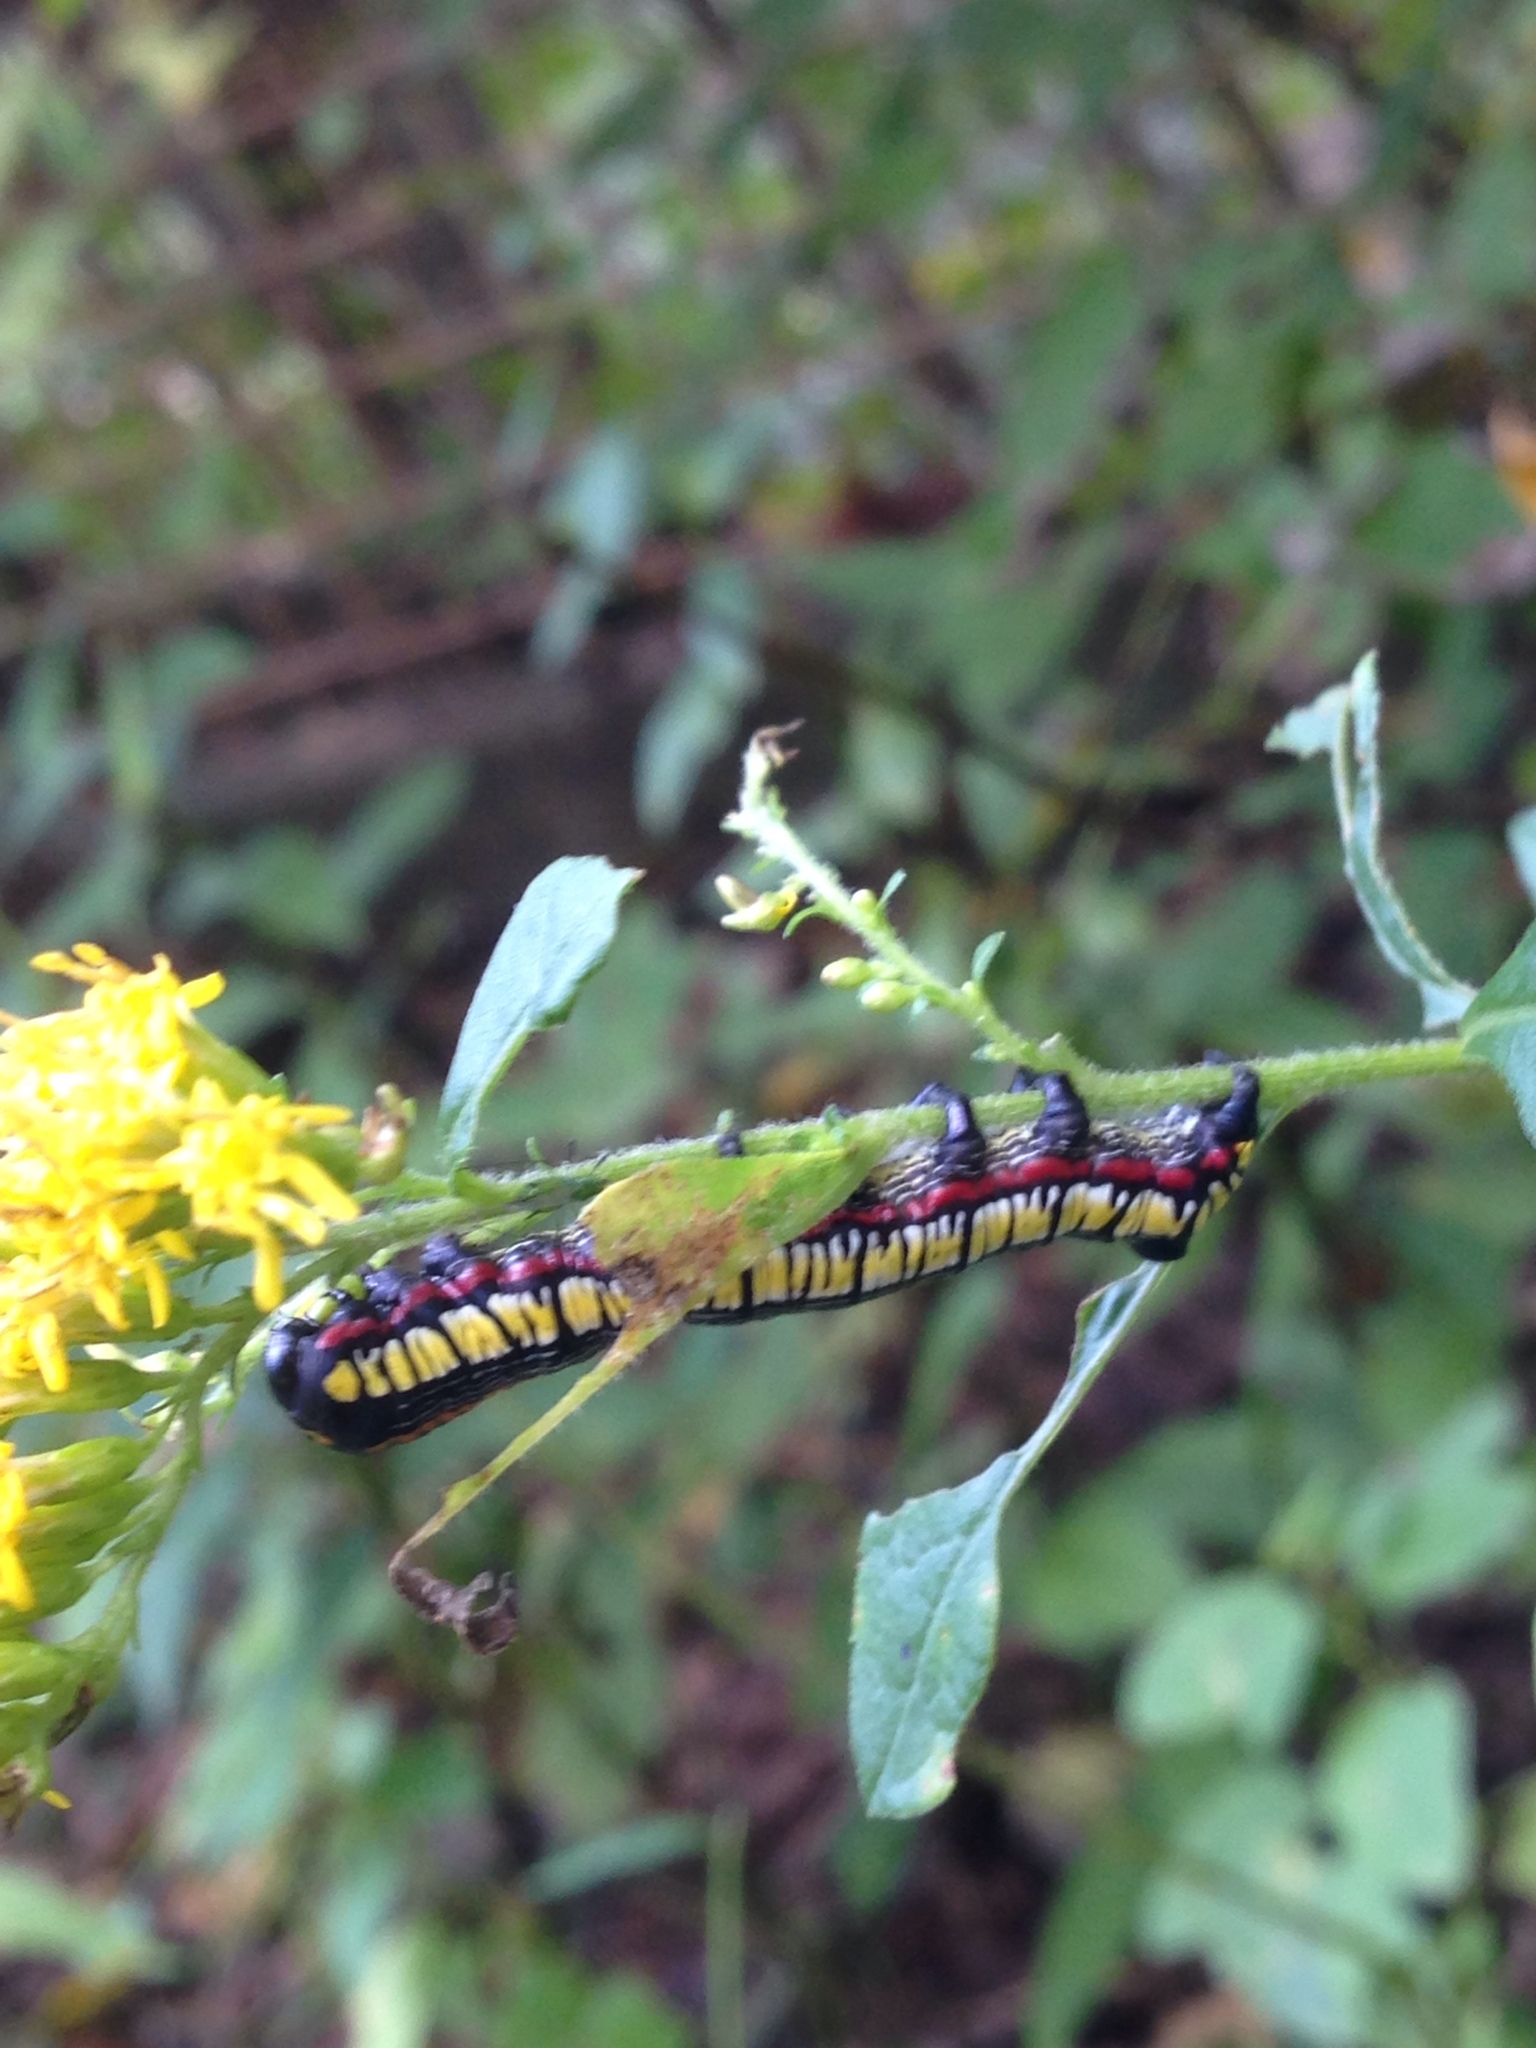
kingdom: Animalia
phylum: Arthropoda
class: Insecta
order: Lepidoptera
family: Noctuidae
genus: Cucullia
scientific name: Cucullia convexipennis
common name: Brown-hooded owlet
